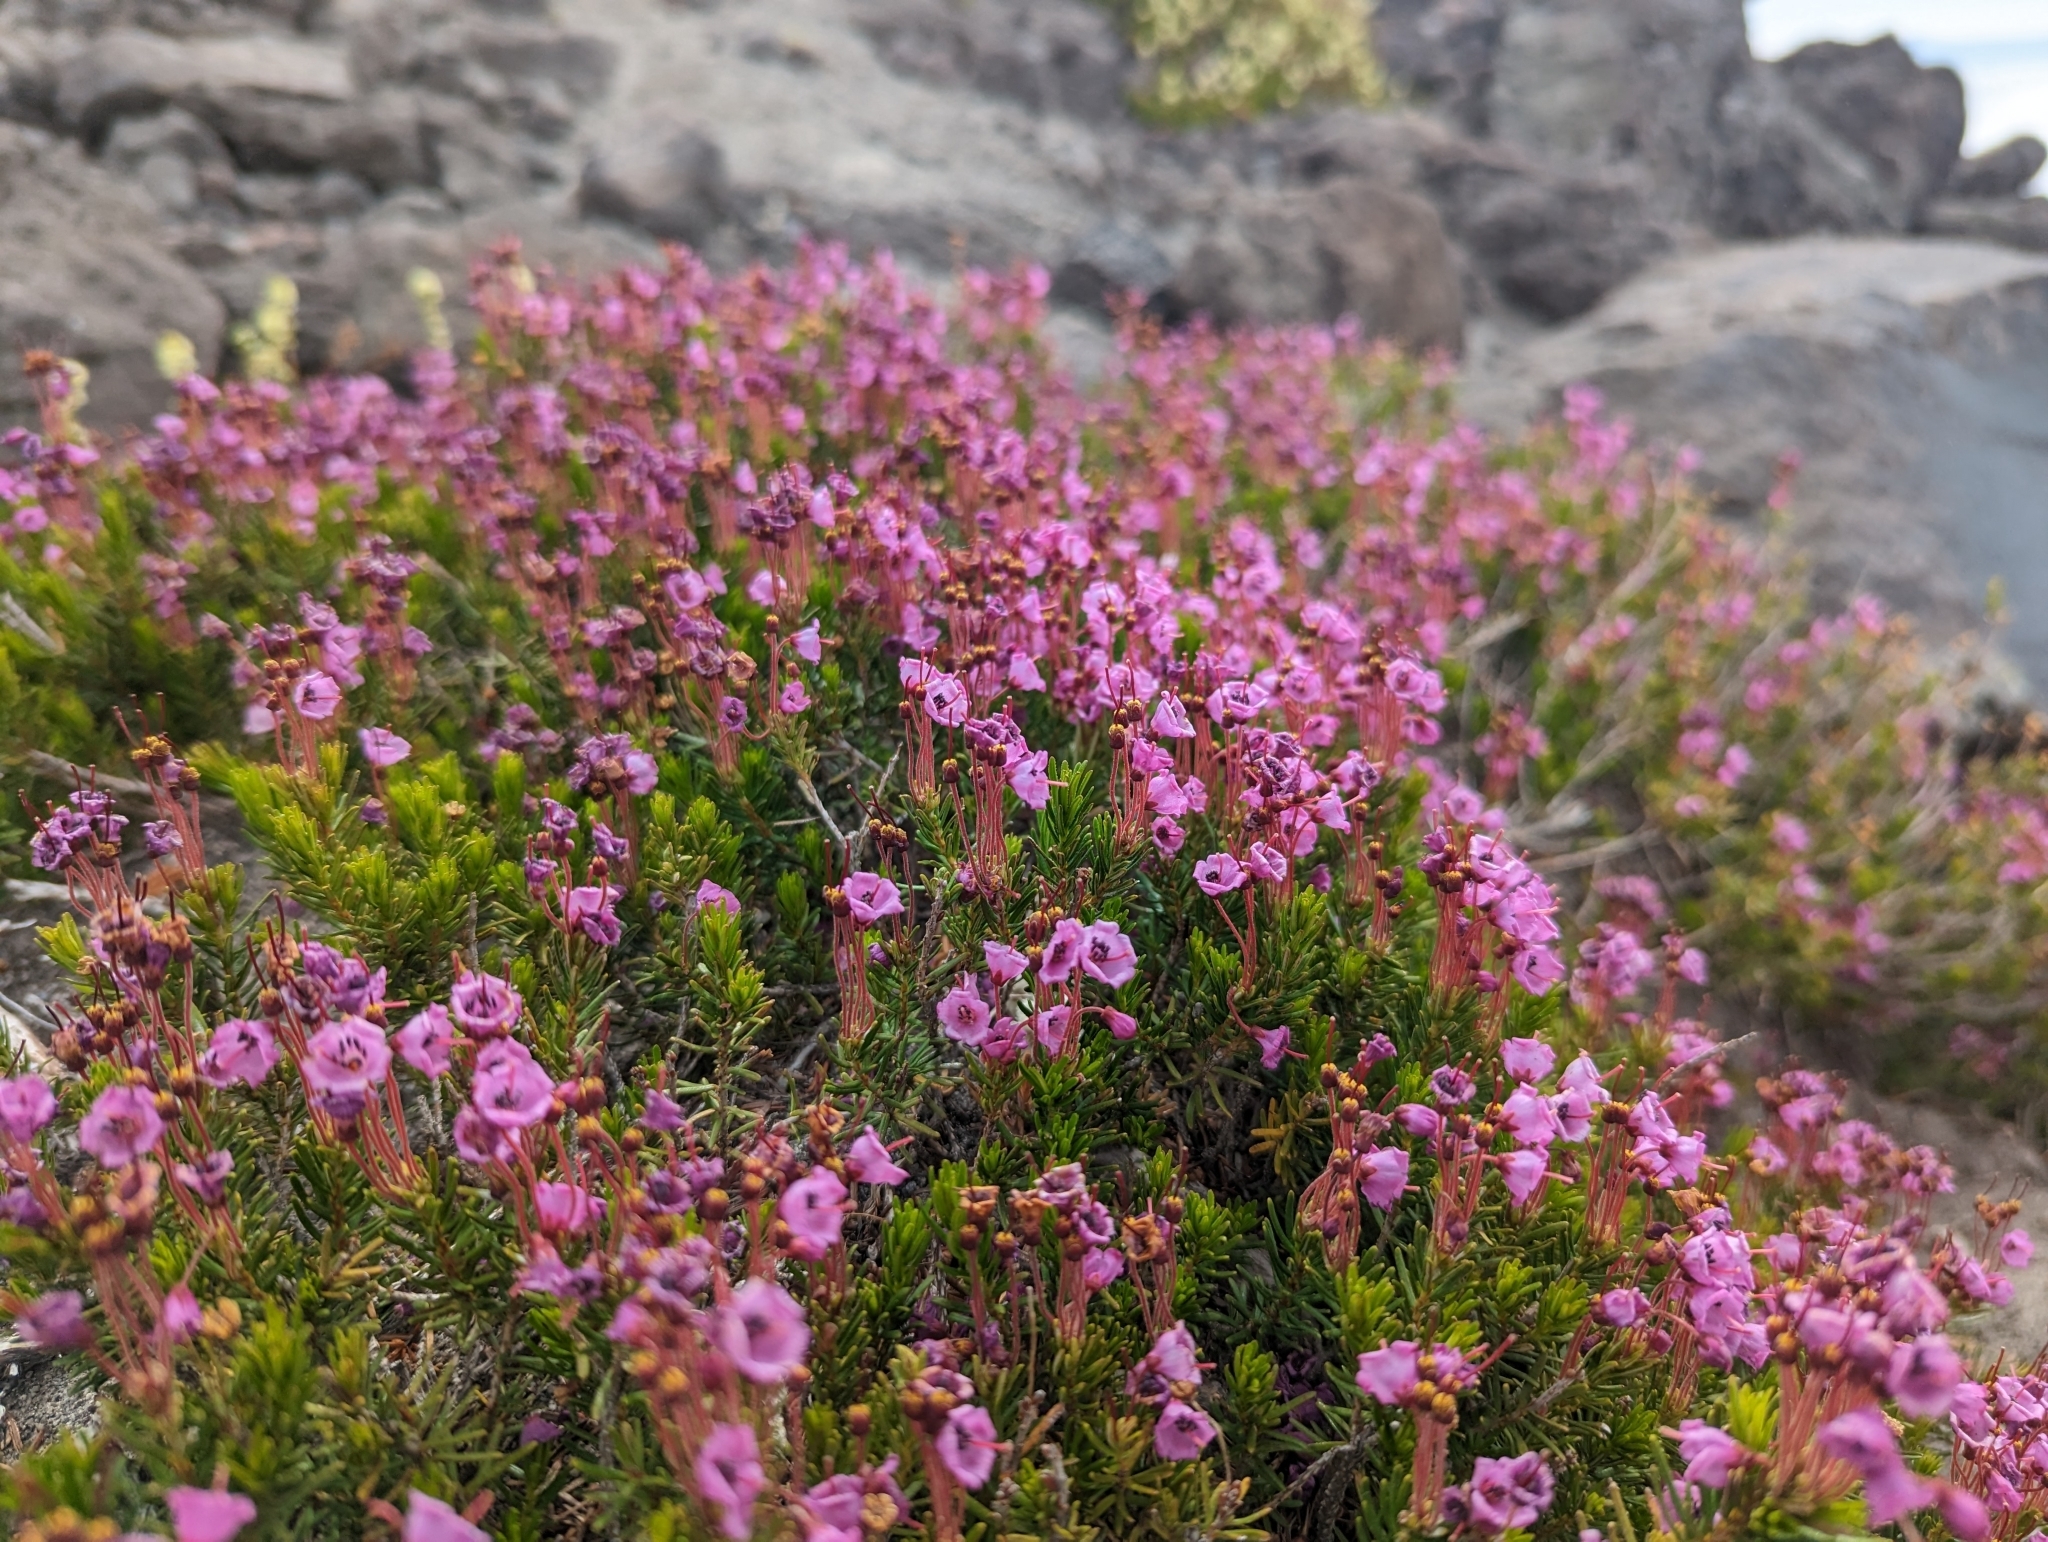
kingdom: Plantae
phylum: Tracheophyta
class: Magnoliopsida
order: Ericales
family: Ericaceae
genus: Phyllodoce
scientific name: Phyllodoce empetriformis
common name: Pink mountain heather
